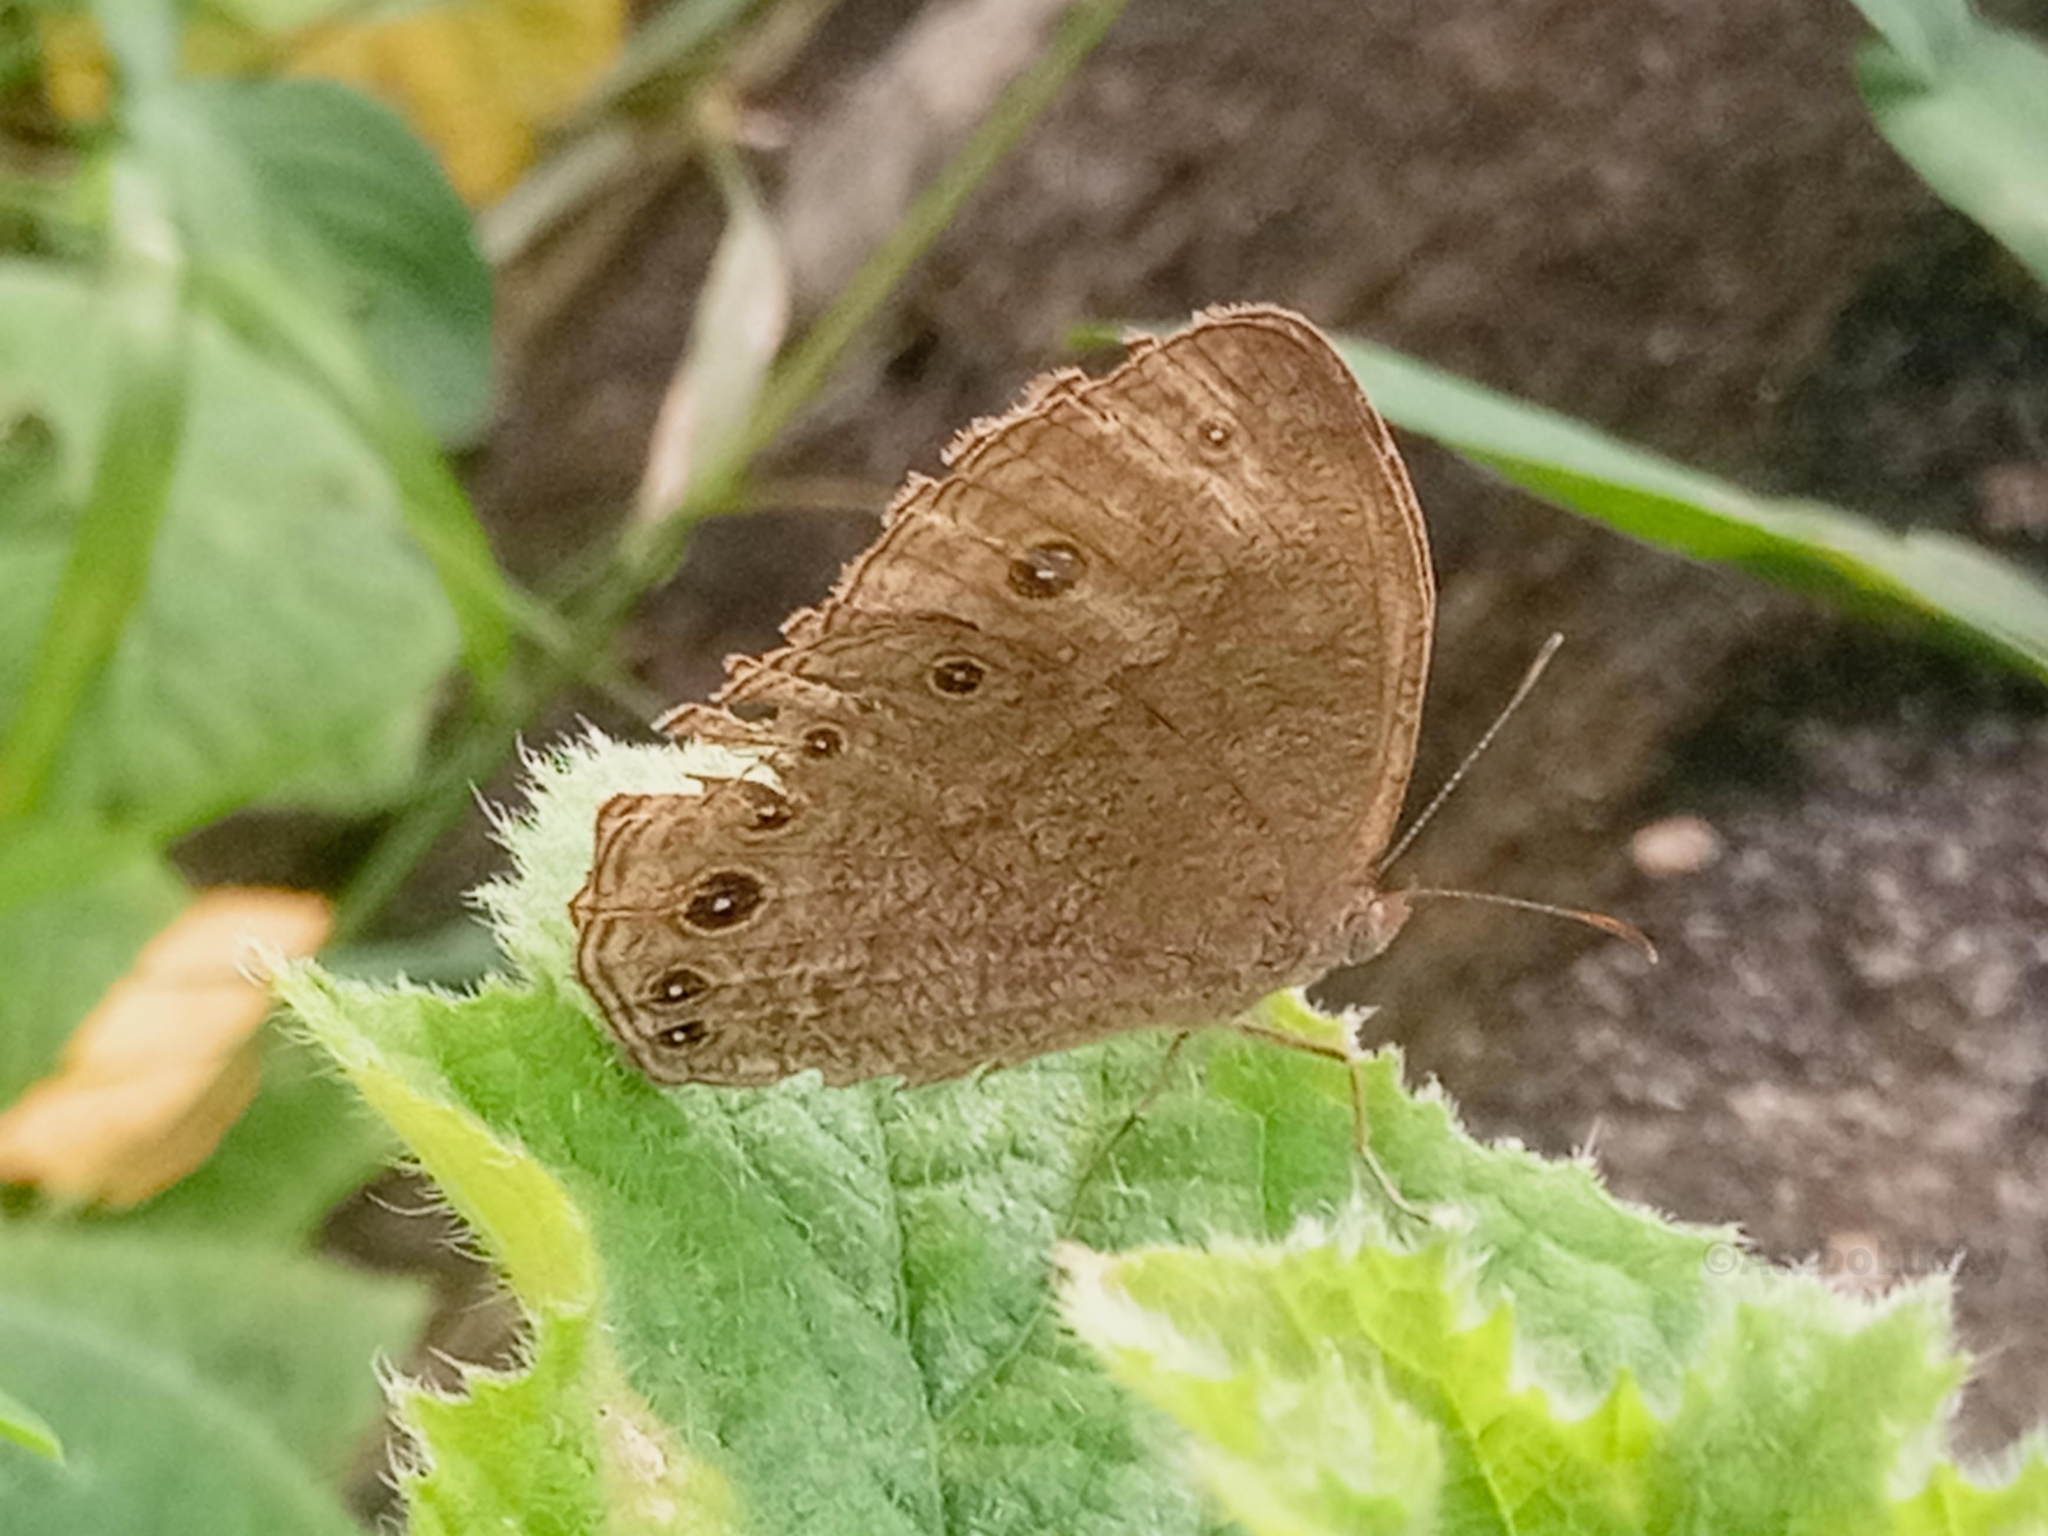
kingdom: Animalia
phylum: Arthropoda
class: Insecta
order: Lepidoptera
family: Nymphalidae
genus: Mycalesis
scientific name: Mycalesis vulgaris
